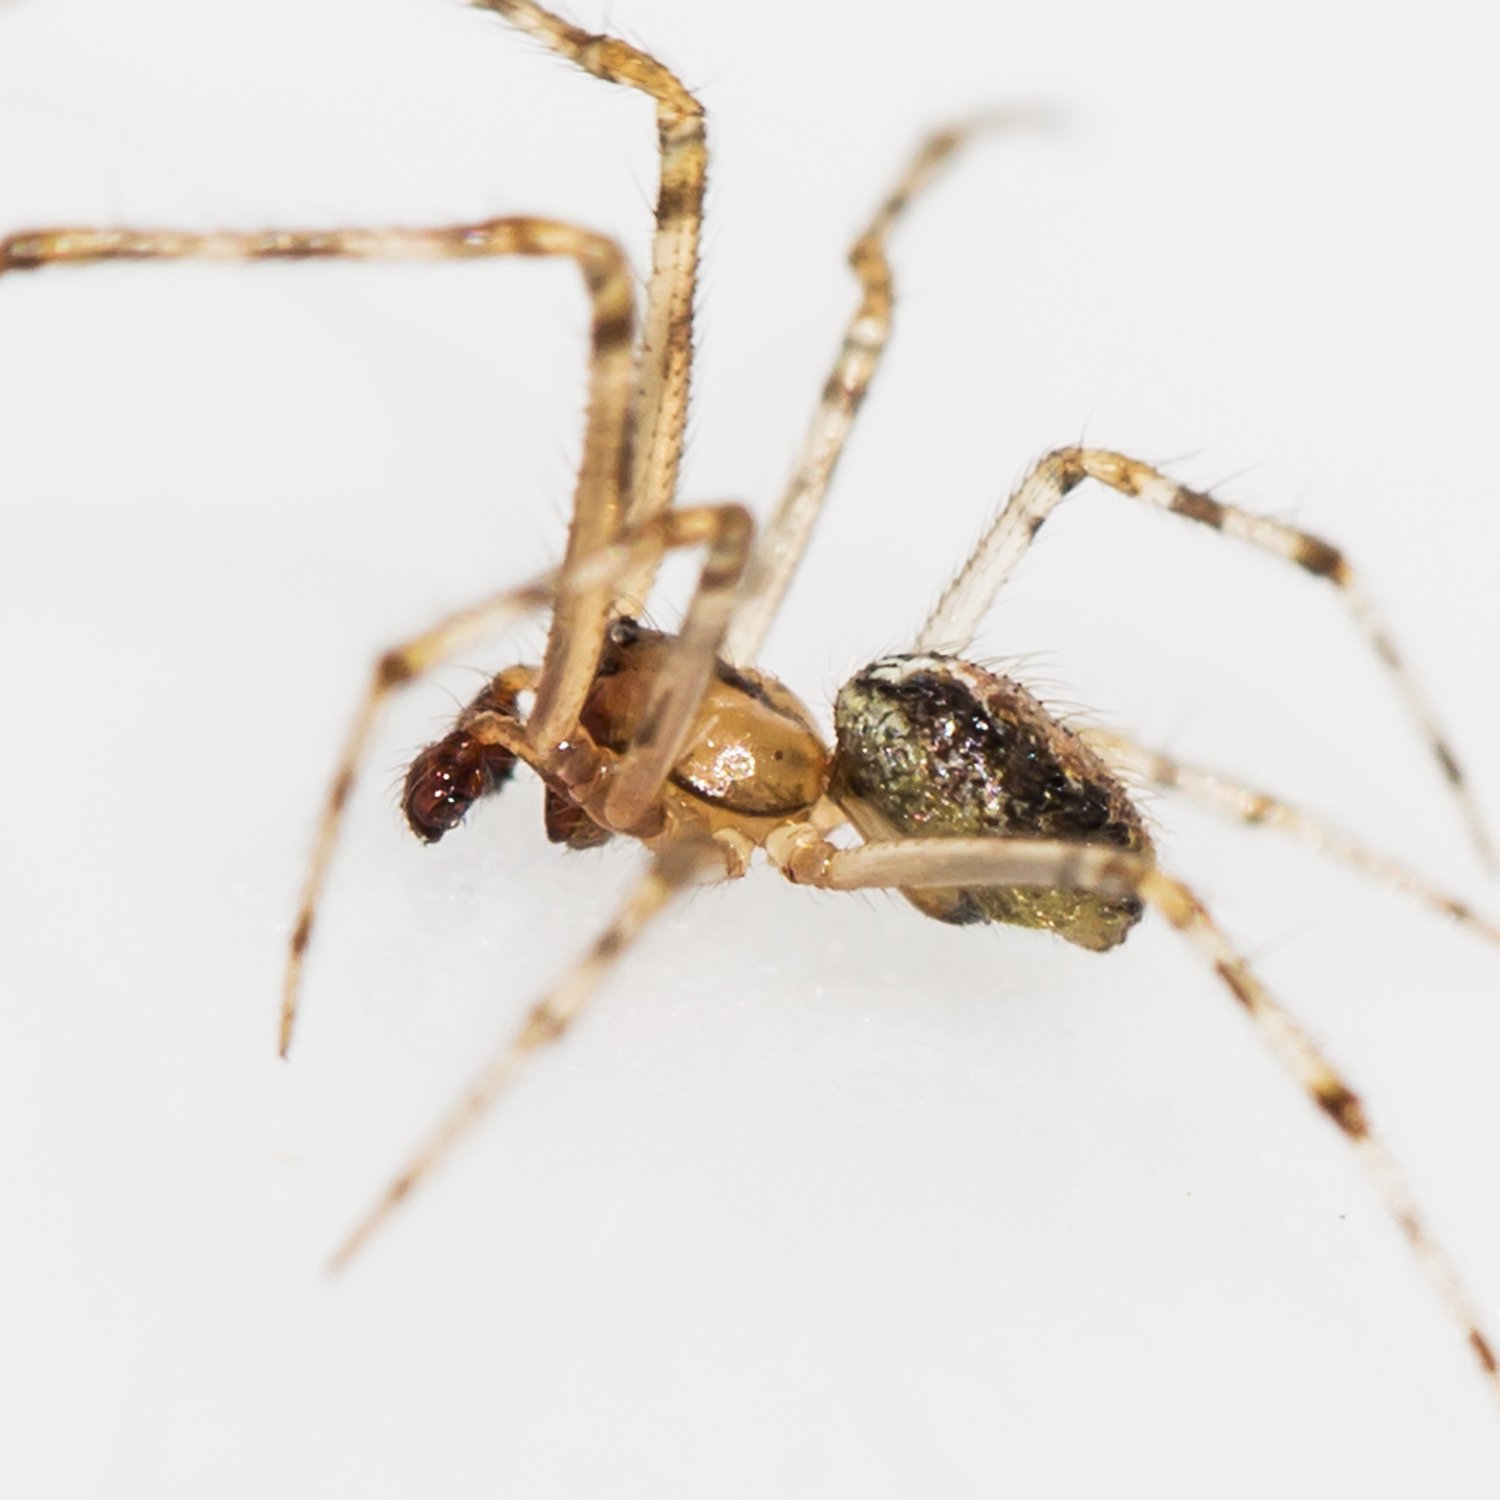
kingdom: Animalia
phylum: Arthropoda
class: Arachnida
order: Araneae
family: Theridiidae
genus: Theridion
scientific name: Theridion murarium
